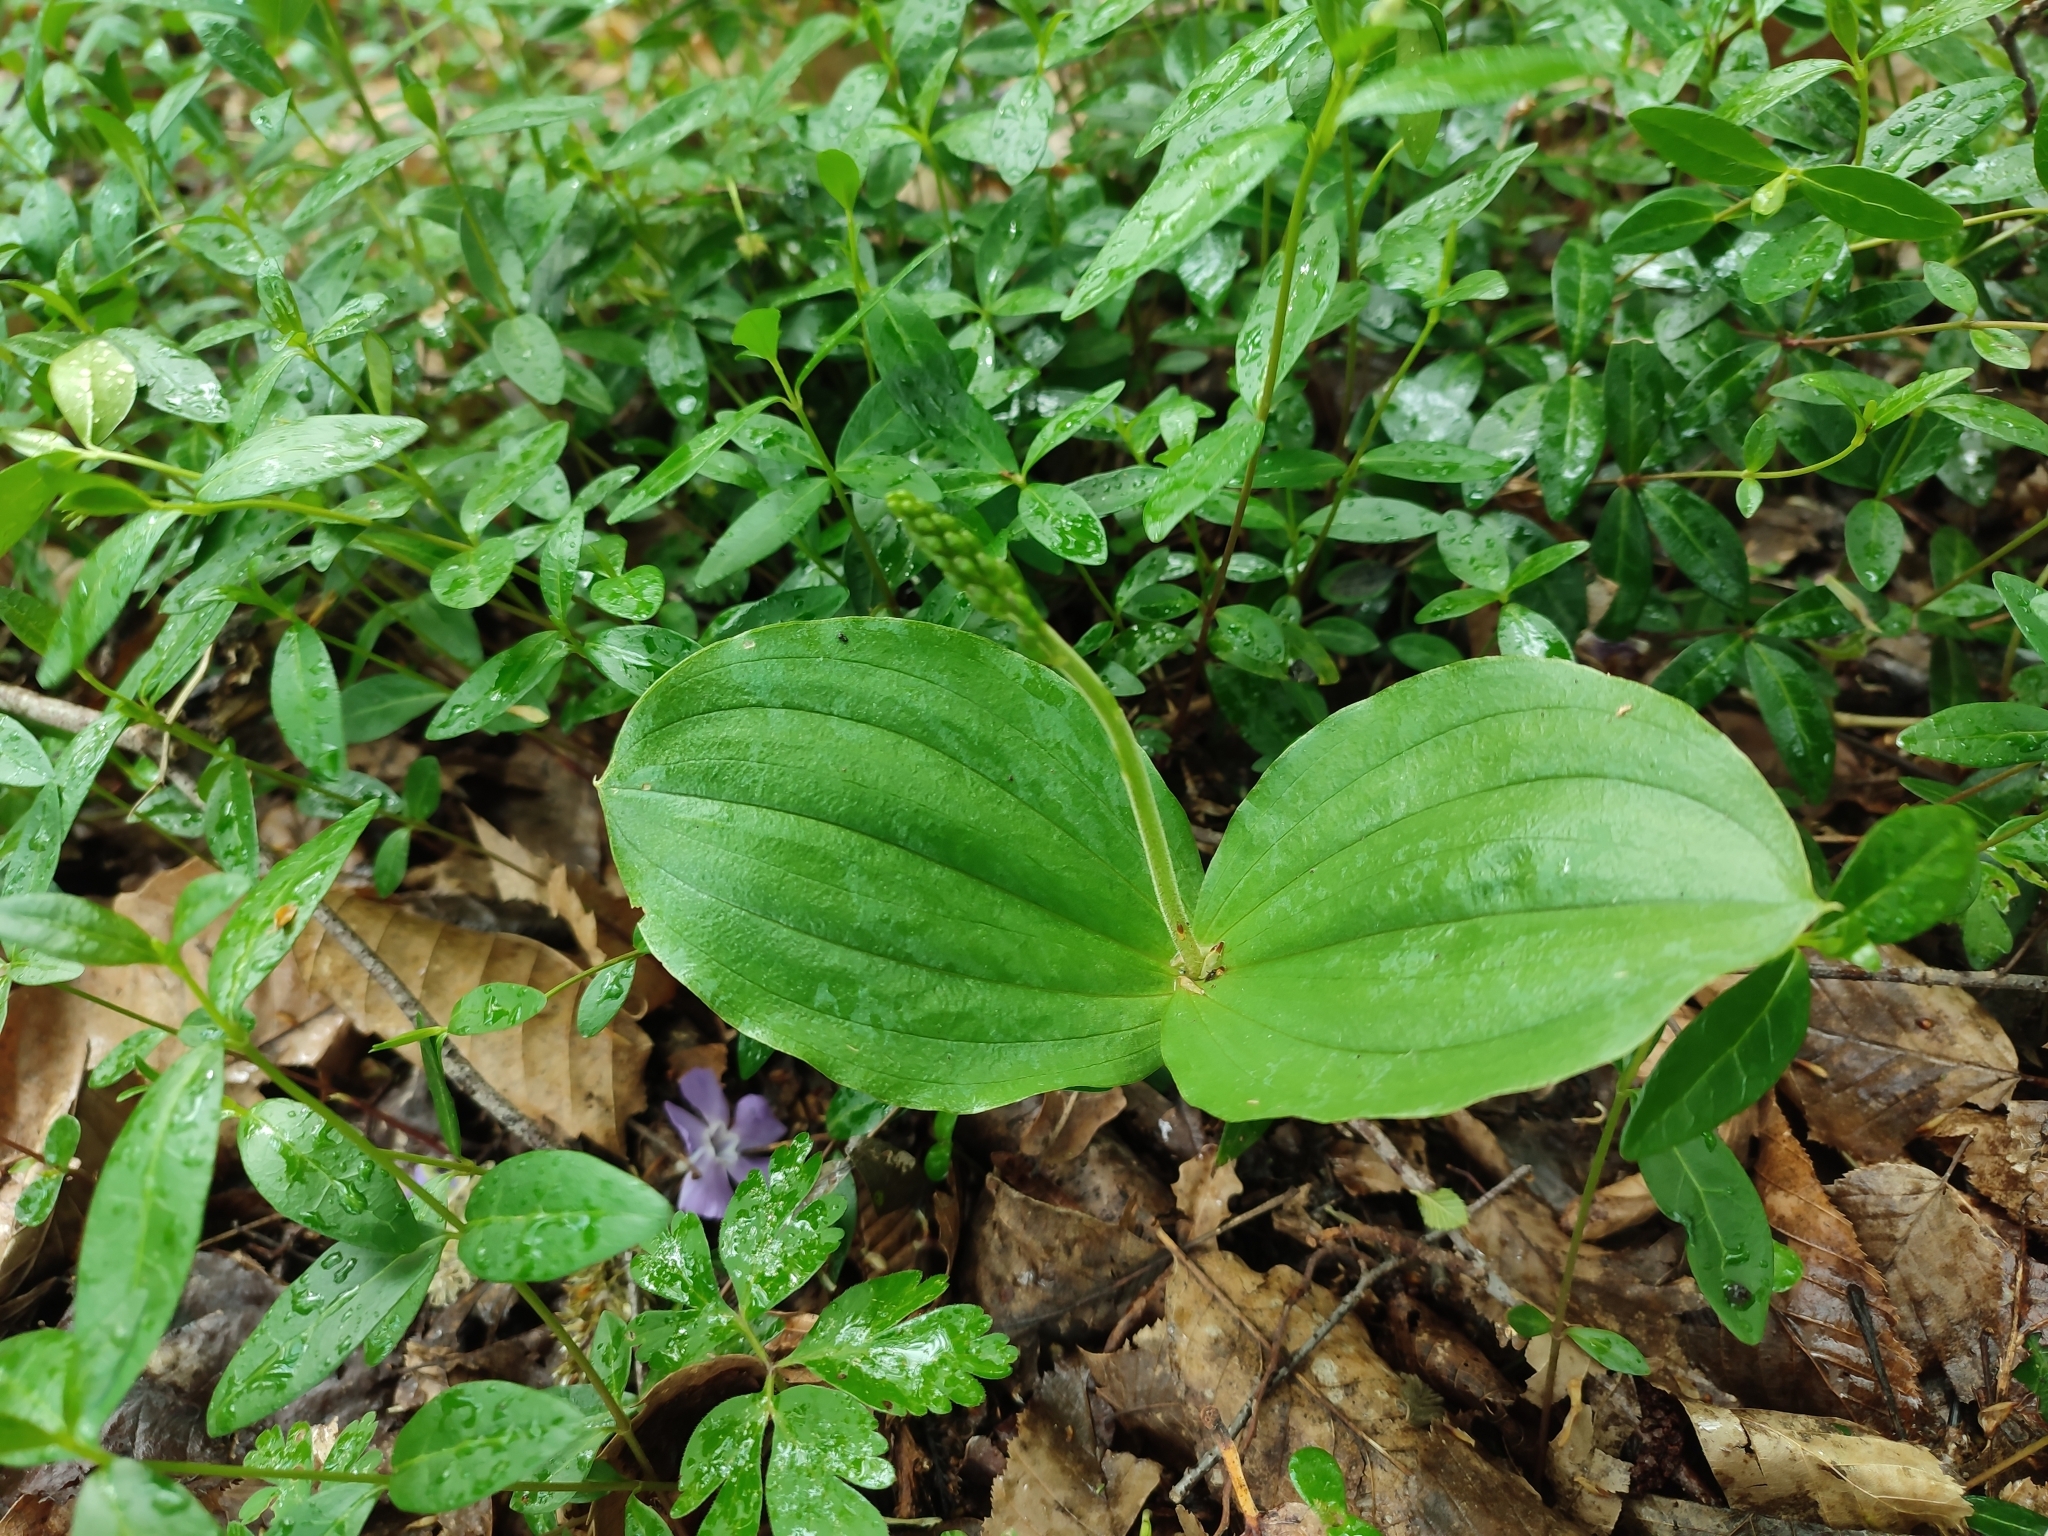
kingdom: Plantae
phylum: Tracheophyta
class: Liliopsida
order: Asparagales
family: Orchidaceae
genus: Neottia
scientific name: Neottia ovata
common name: Common twayblade
